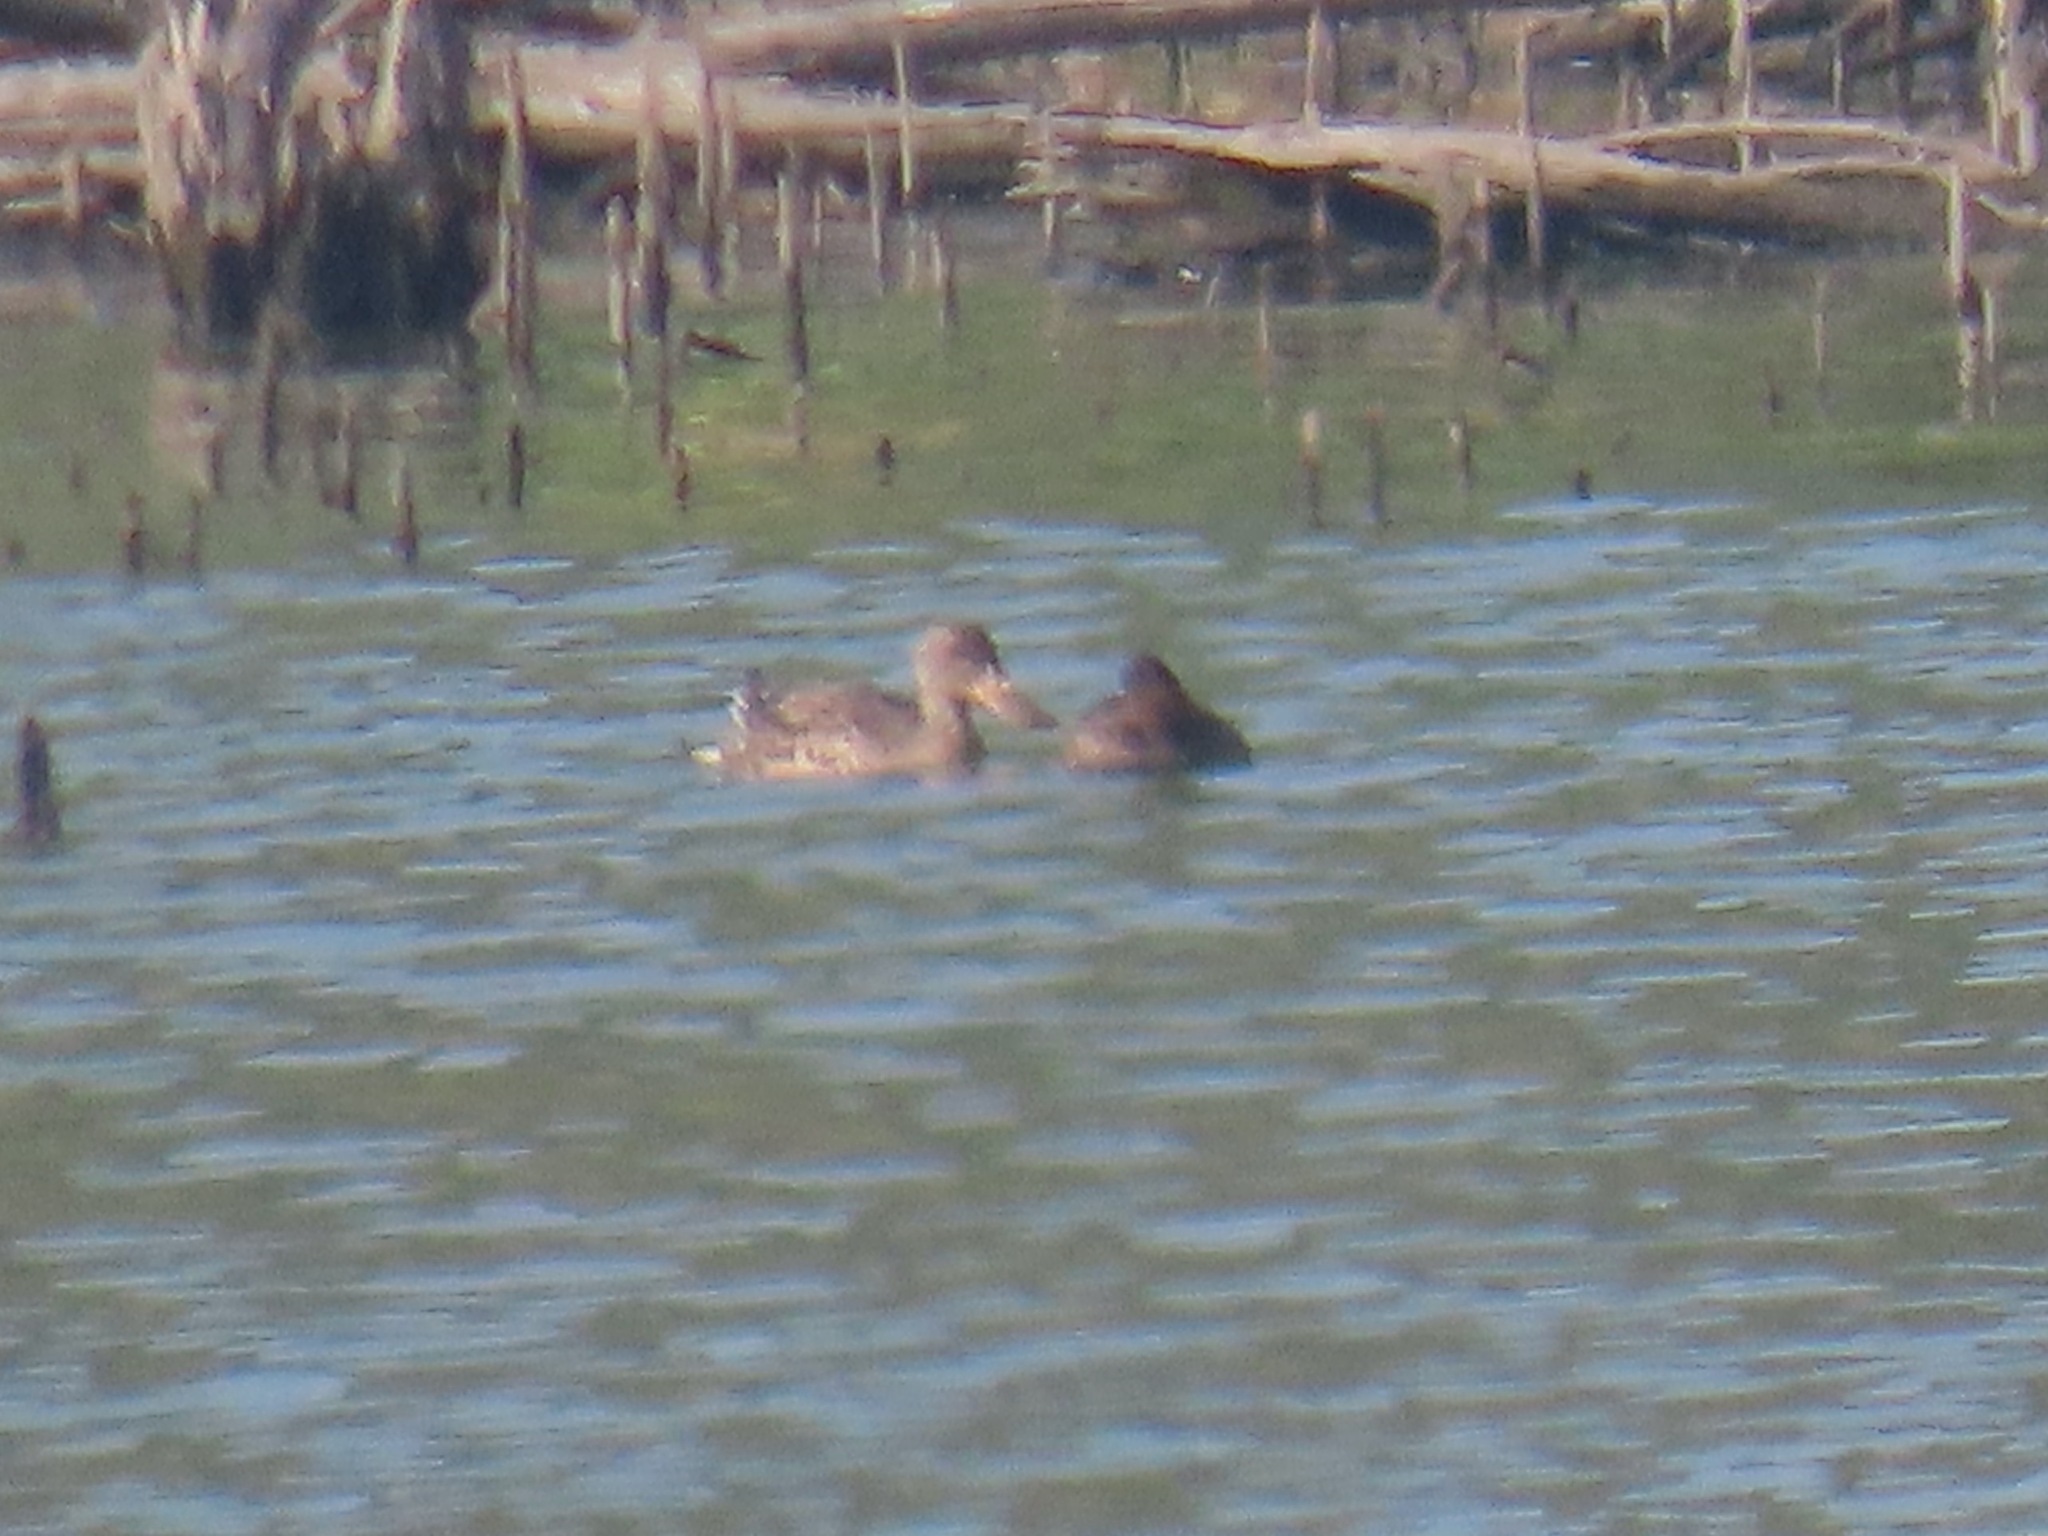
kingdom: Animalia
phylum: Chordata
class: Aves
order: Anseriformes
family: Anatidae
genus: Spatula
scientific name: Spatula clypeata
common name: Northern shoveler
